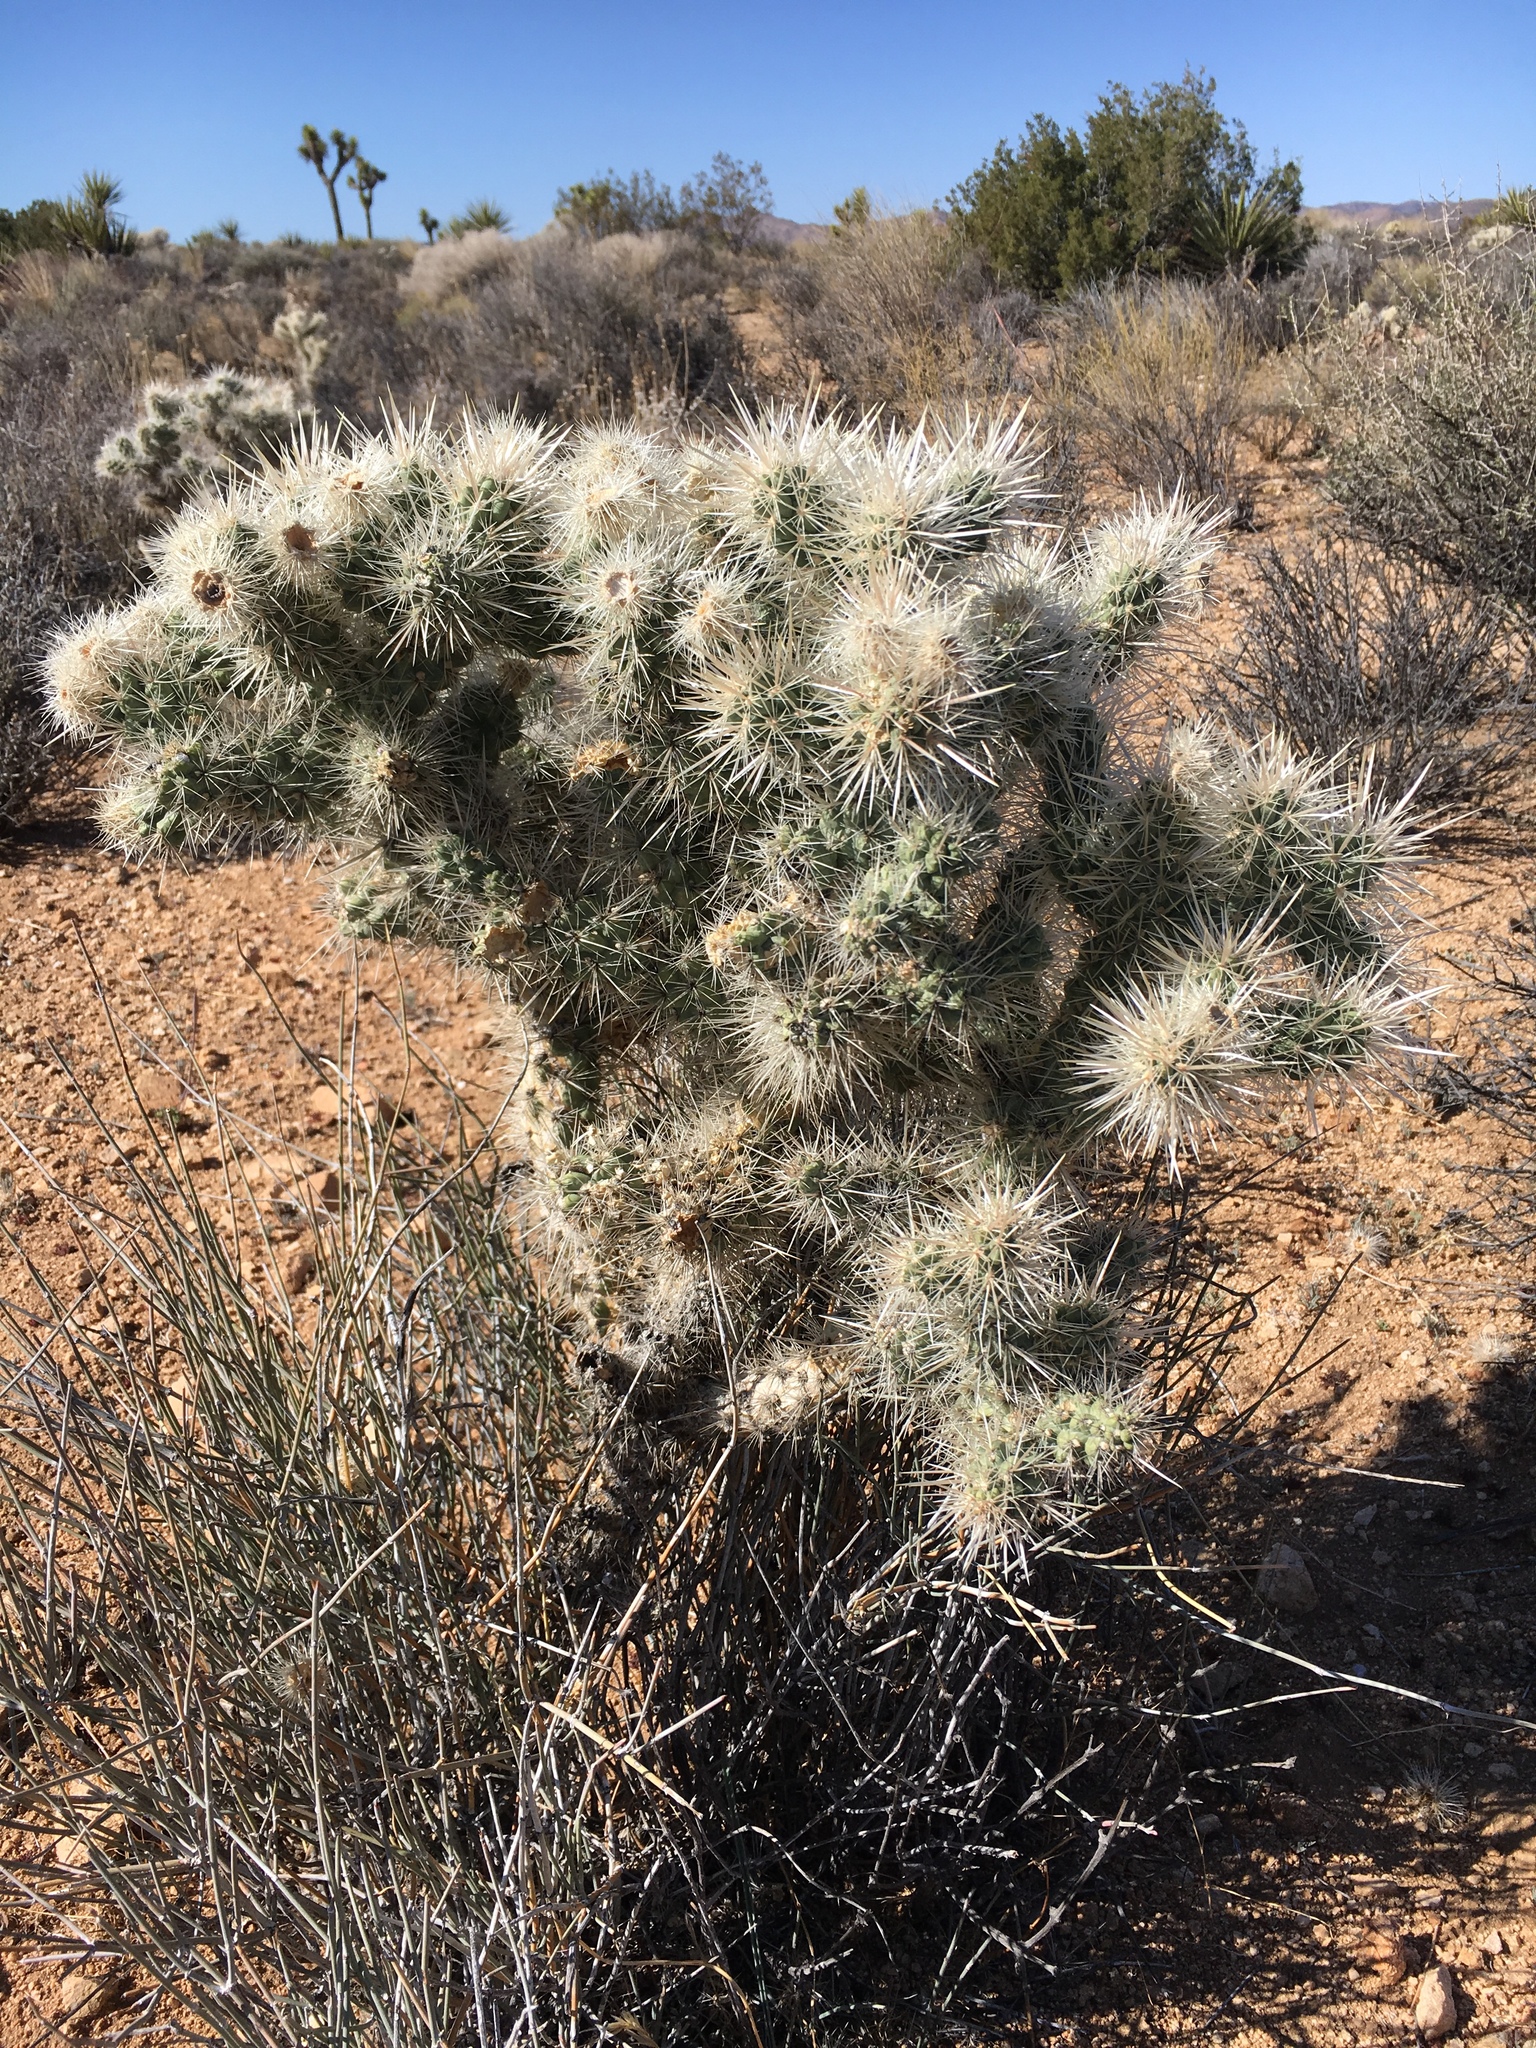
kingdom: Plantae
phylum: Tracheophyta
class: Magnoliopsida
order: Caryophyllales
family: Cactaceae
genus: Cylindropuntia
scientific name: Cylindropuntia echinocarpa
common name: Ground cholla
